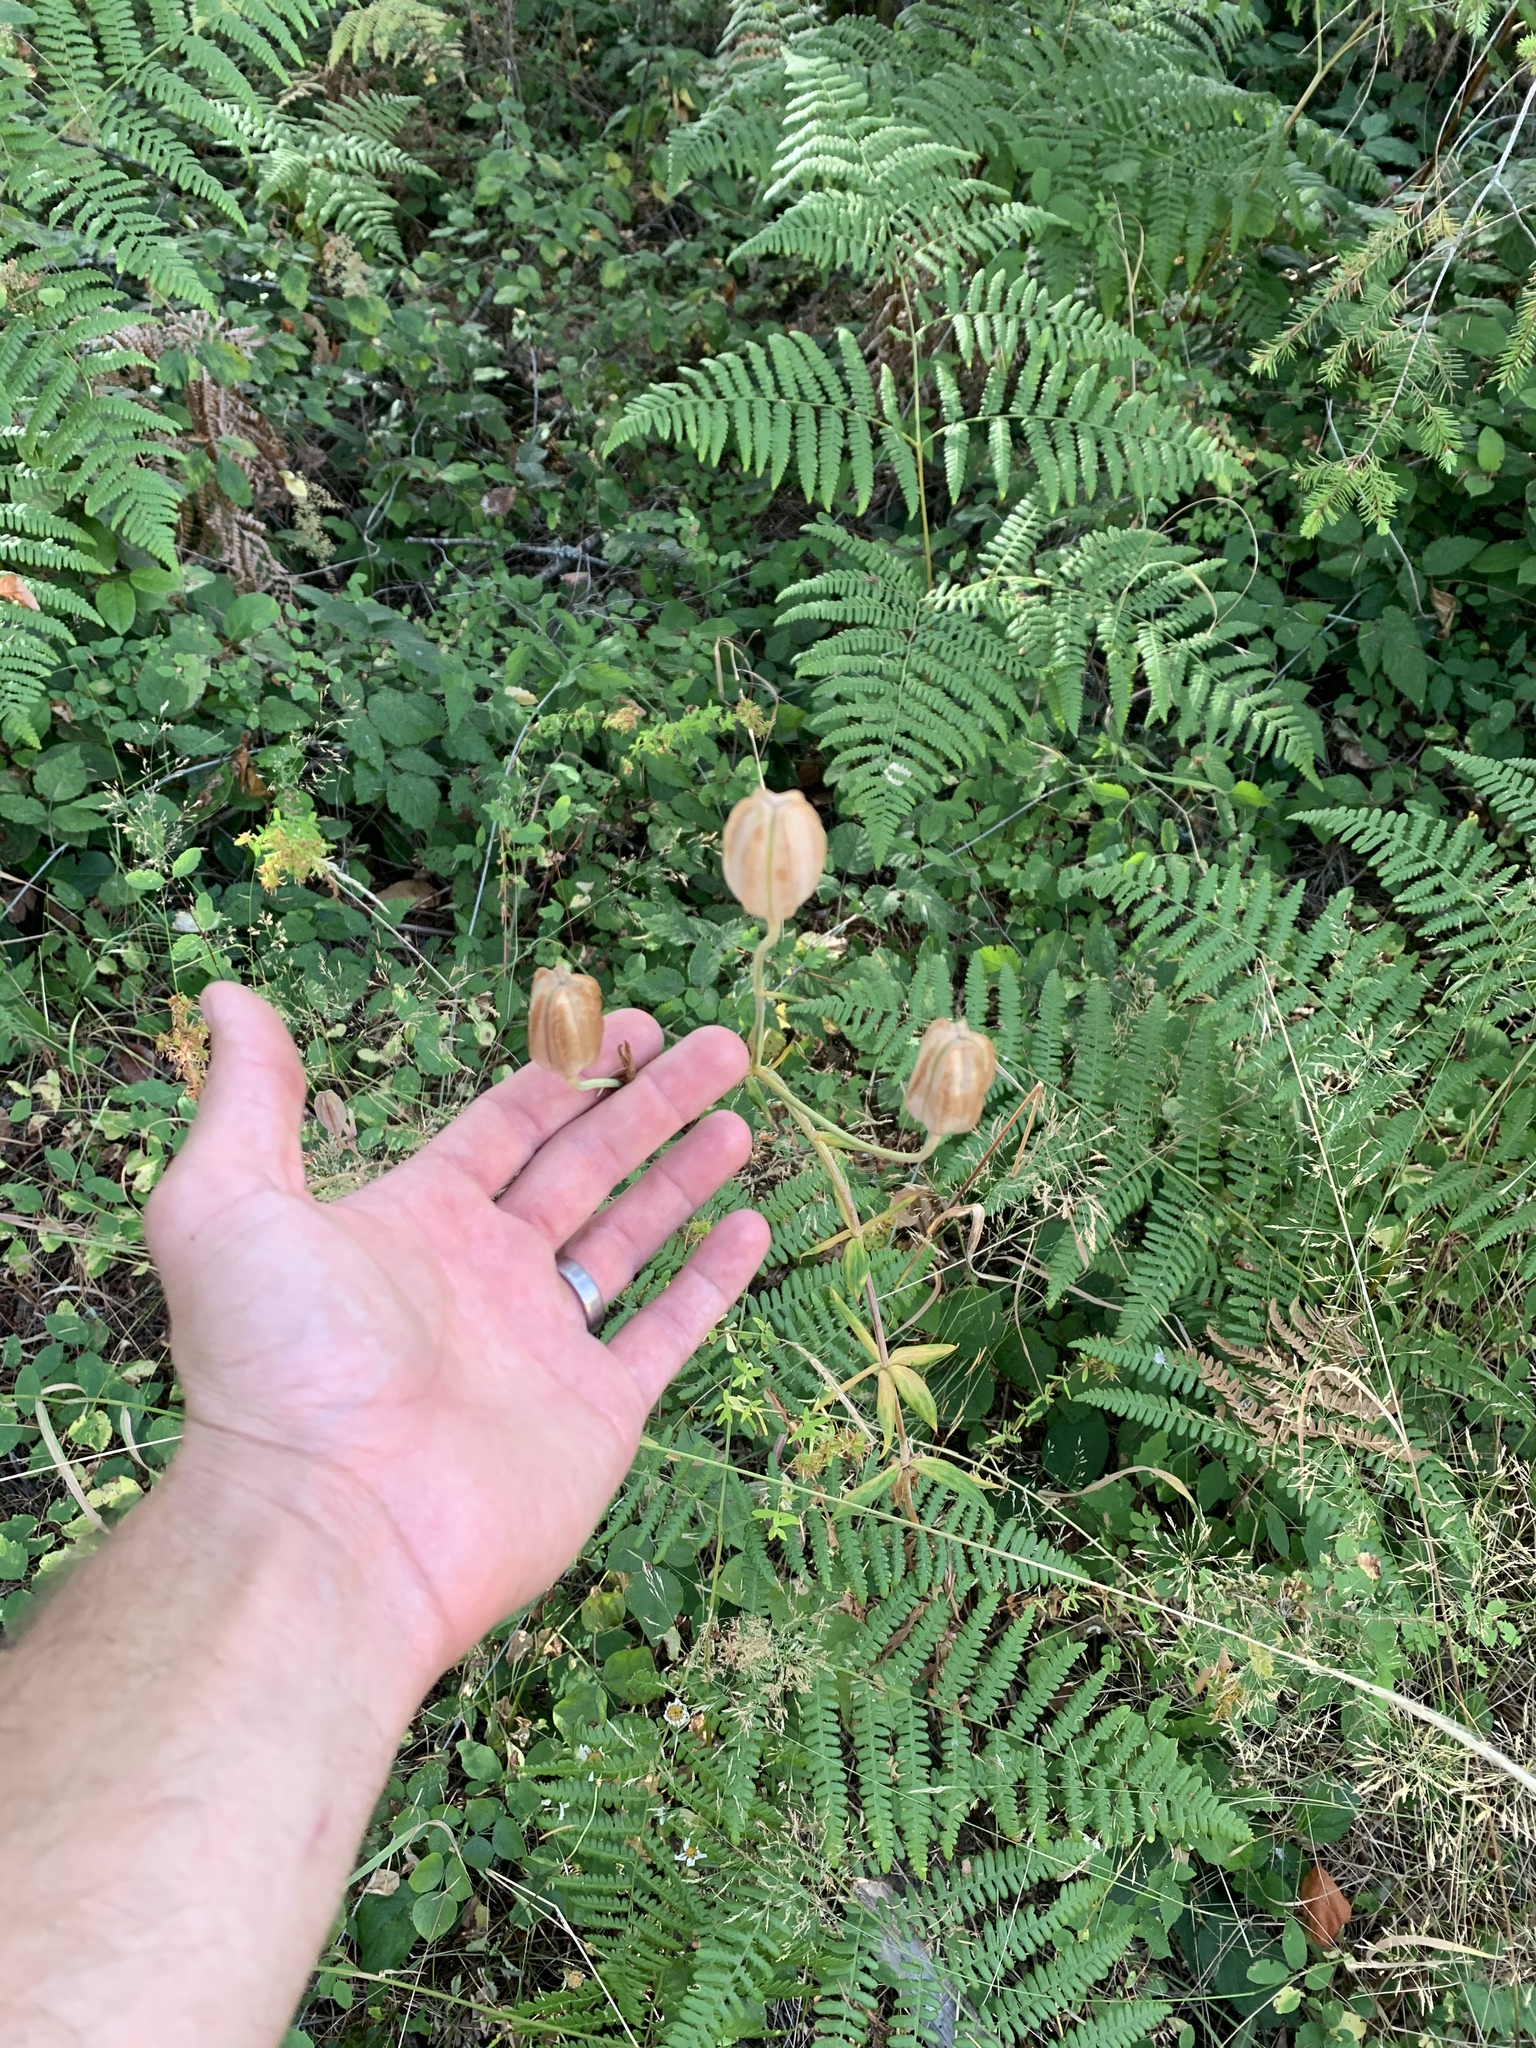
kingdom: Plantae
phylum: Tracheophyta
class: Liliopsida
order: Liliales
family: Liliaceae
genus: Lilium
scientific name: Lilium columbianum
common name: Columbia lily
